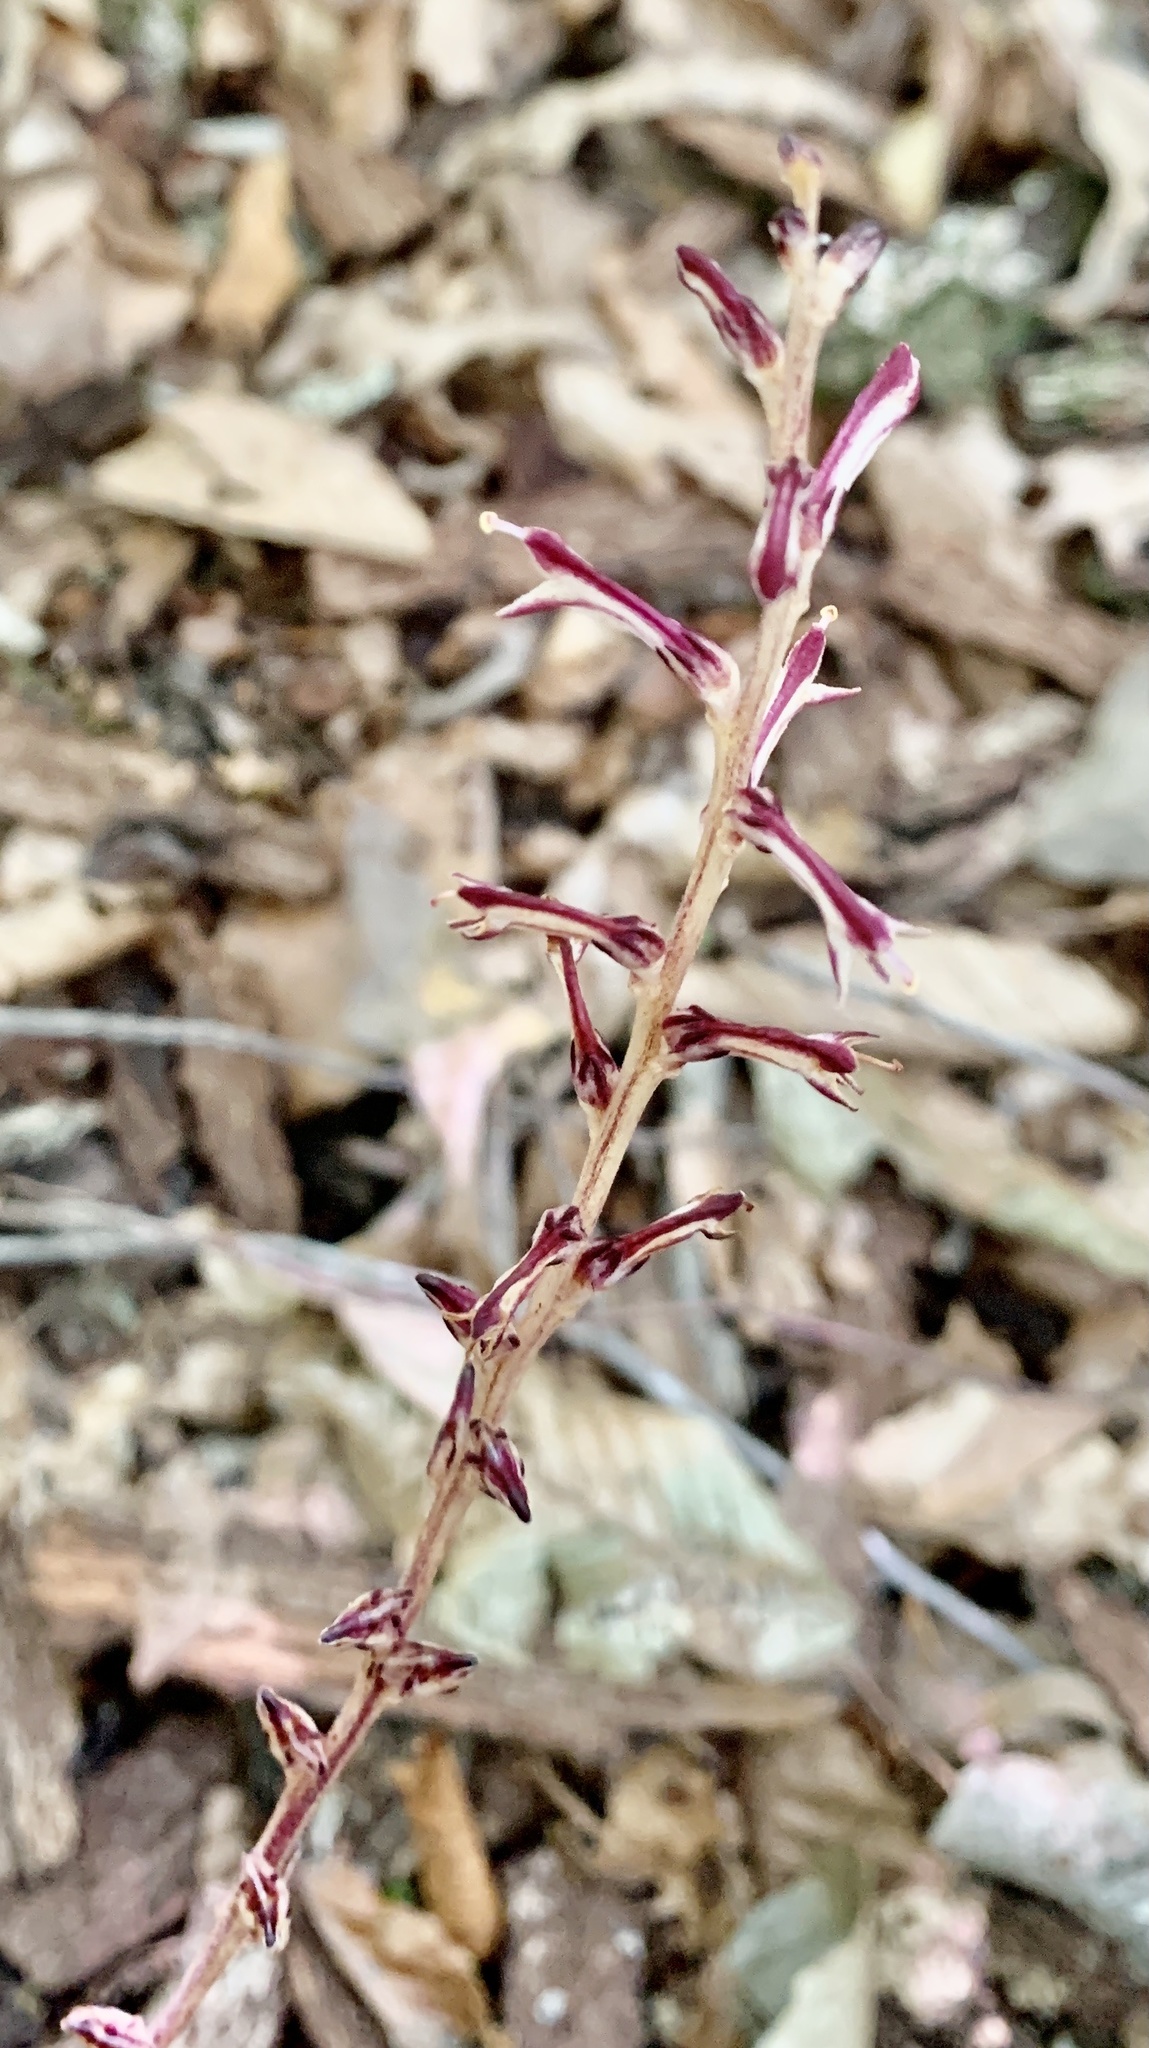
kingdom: Plantae
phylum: Tracheophyta
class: Magnoliopsida
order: Lamiales
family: Orobanchaceae
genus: Epifagus
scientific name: Epifagus virginiana
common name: Beechdrops
